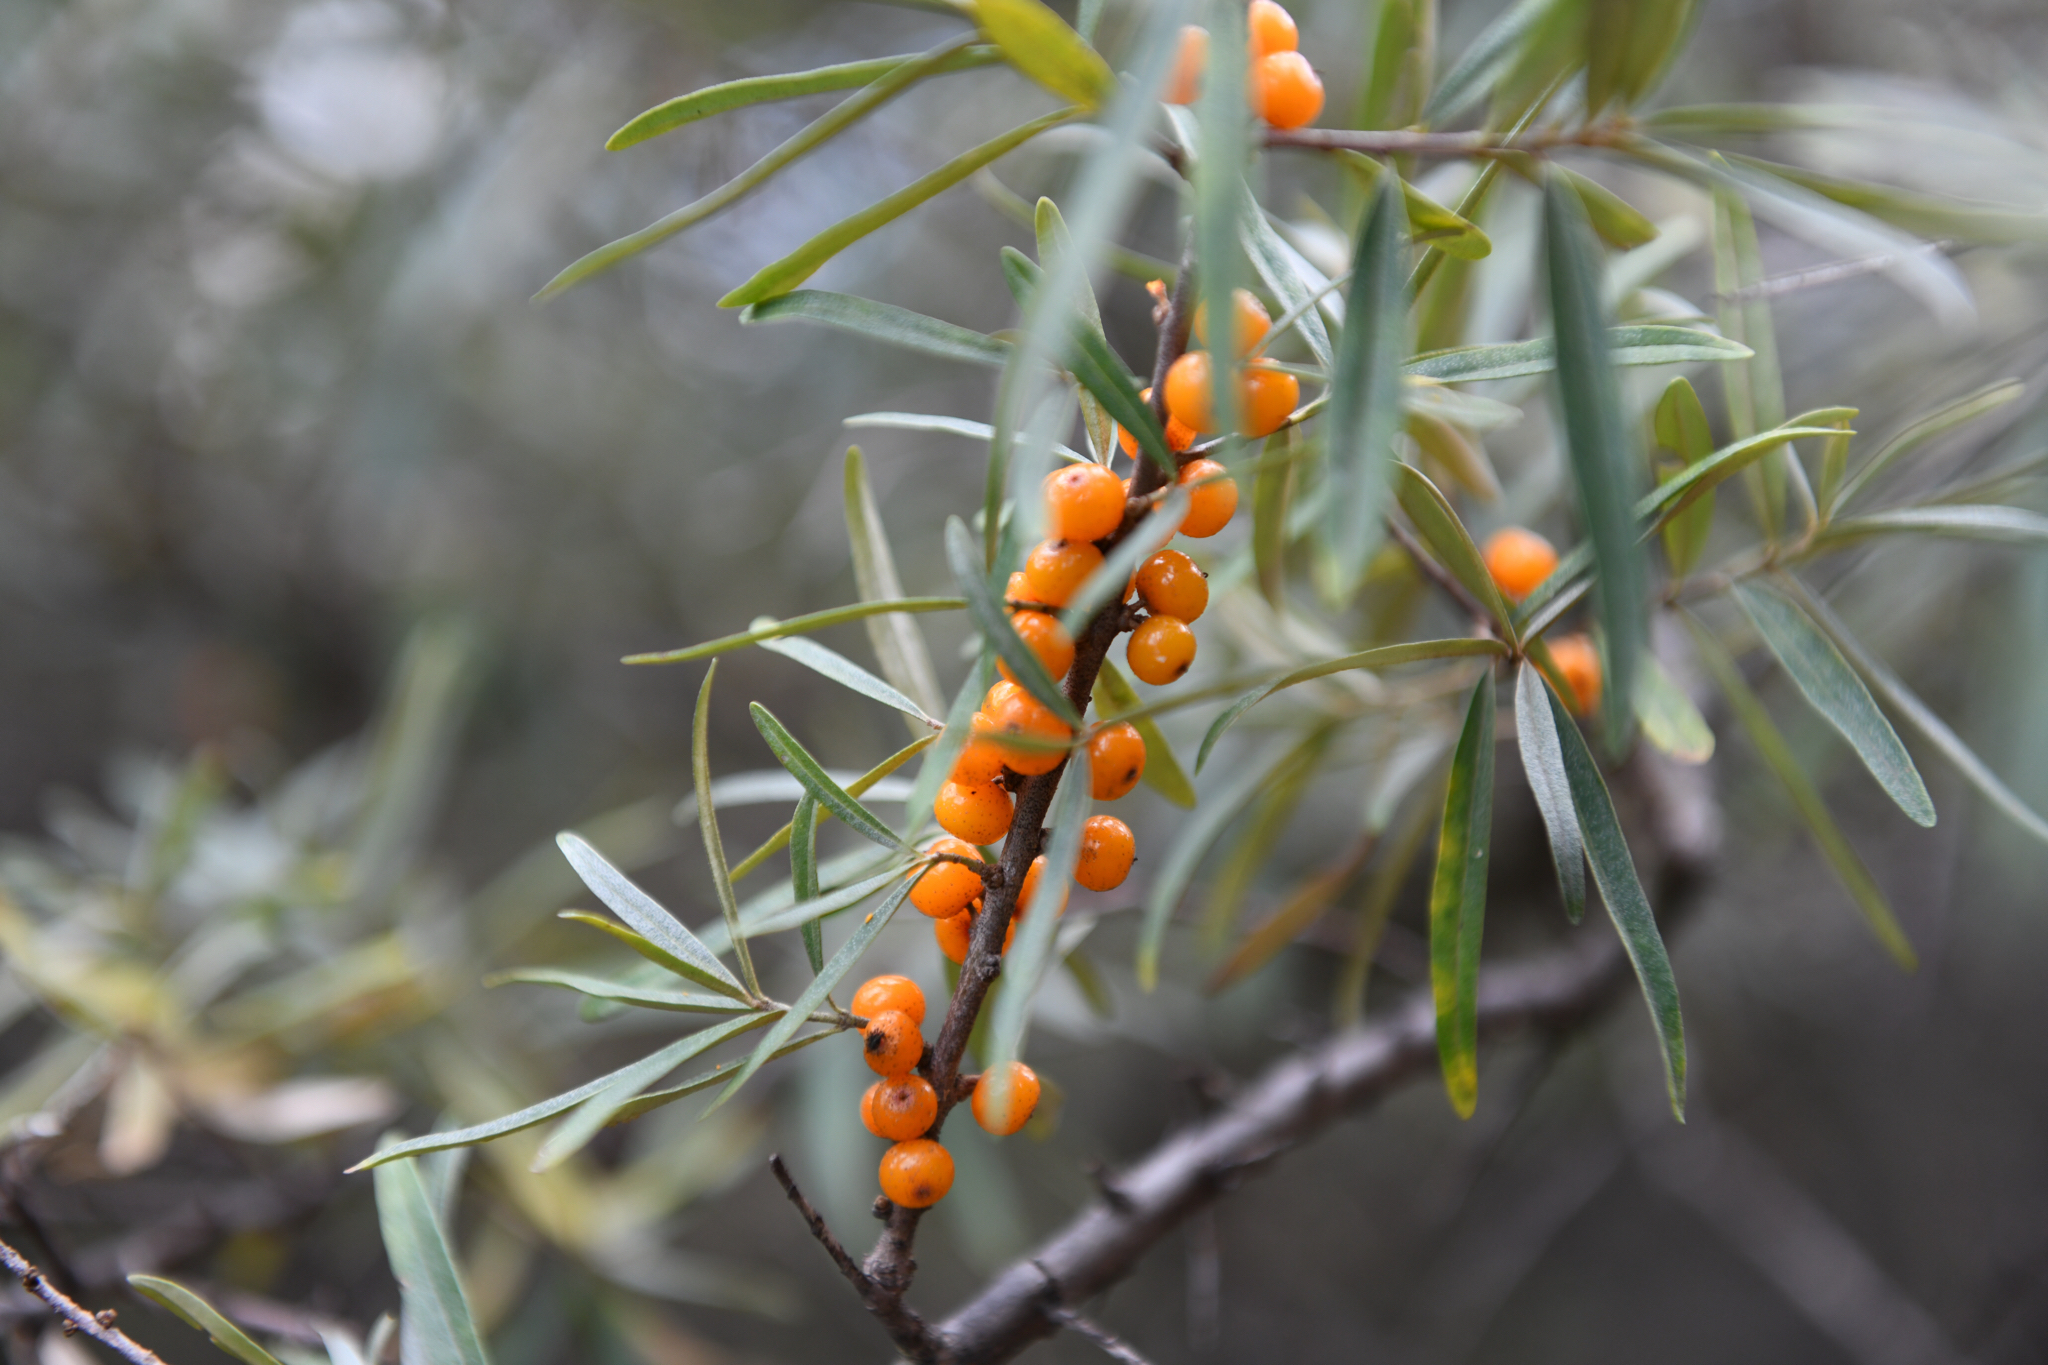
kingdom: Plantae
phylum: Tracheophyta
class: Magnoliopsida
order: Rosales
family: Elaeagnaceae
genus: Hippophae
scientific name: Hippophae rhamnoides
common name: Sea-buckthorn
